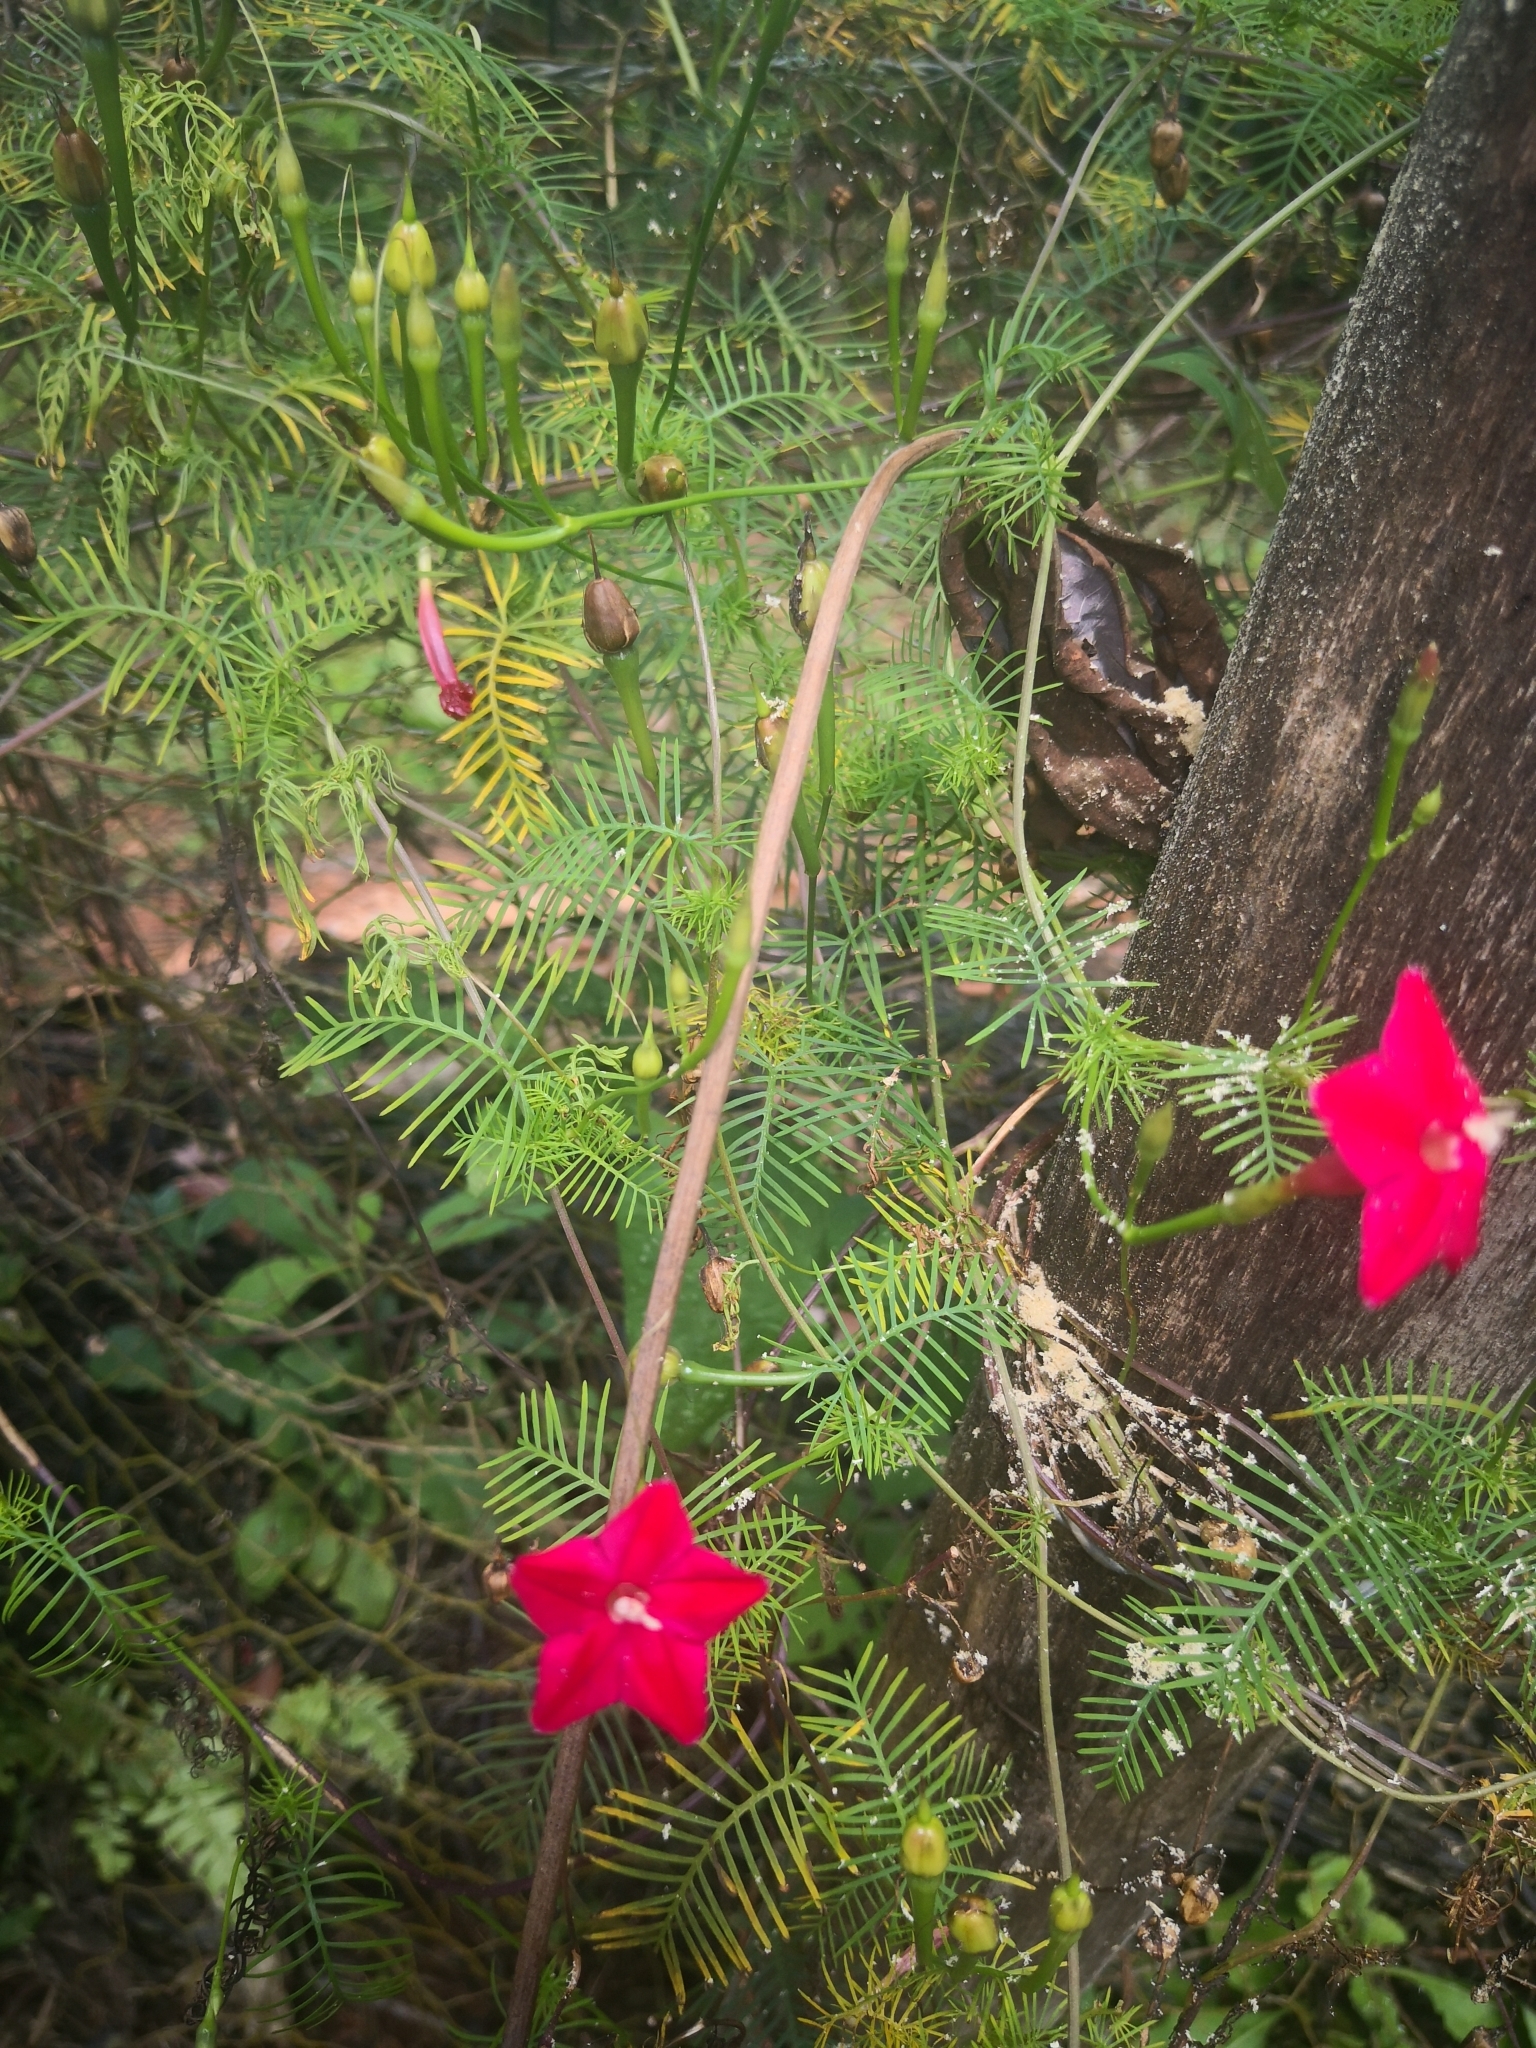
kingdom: Plantae
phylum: Tracheophyta
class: Magnoliopsida
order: Solanales
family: Convolvulaceae
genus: Ipomoea
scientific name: Ipomoea quamoclit
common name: Cypress vine
